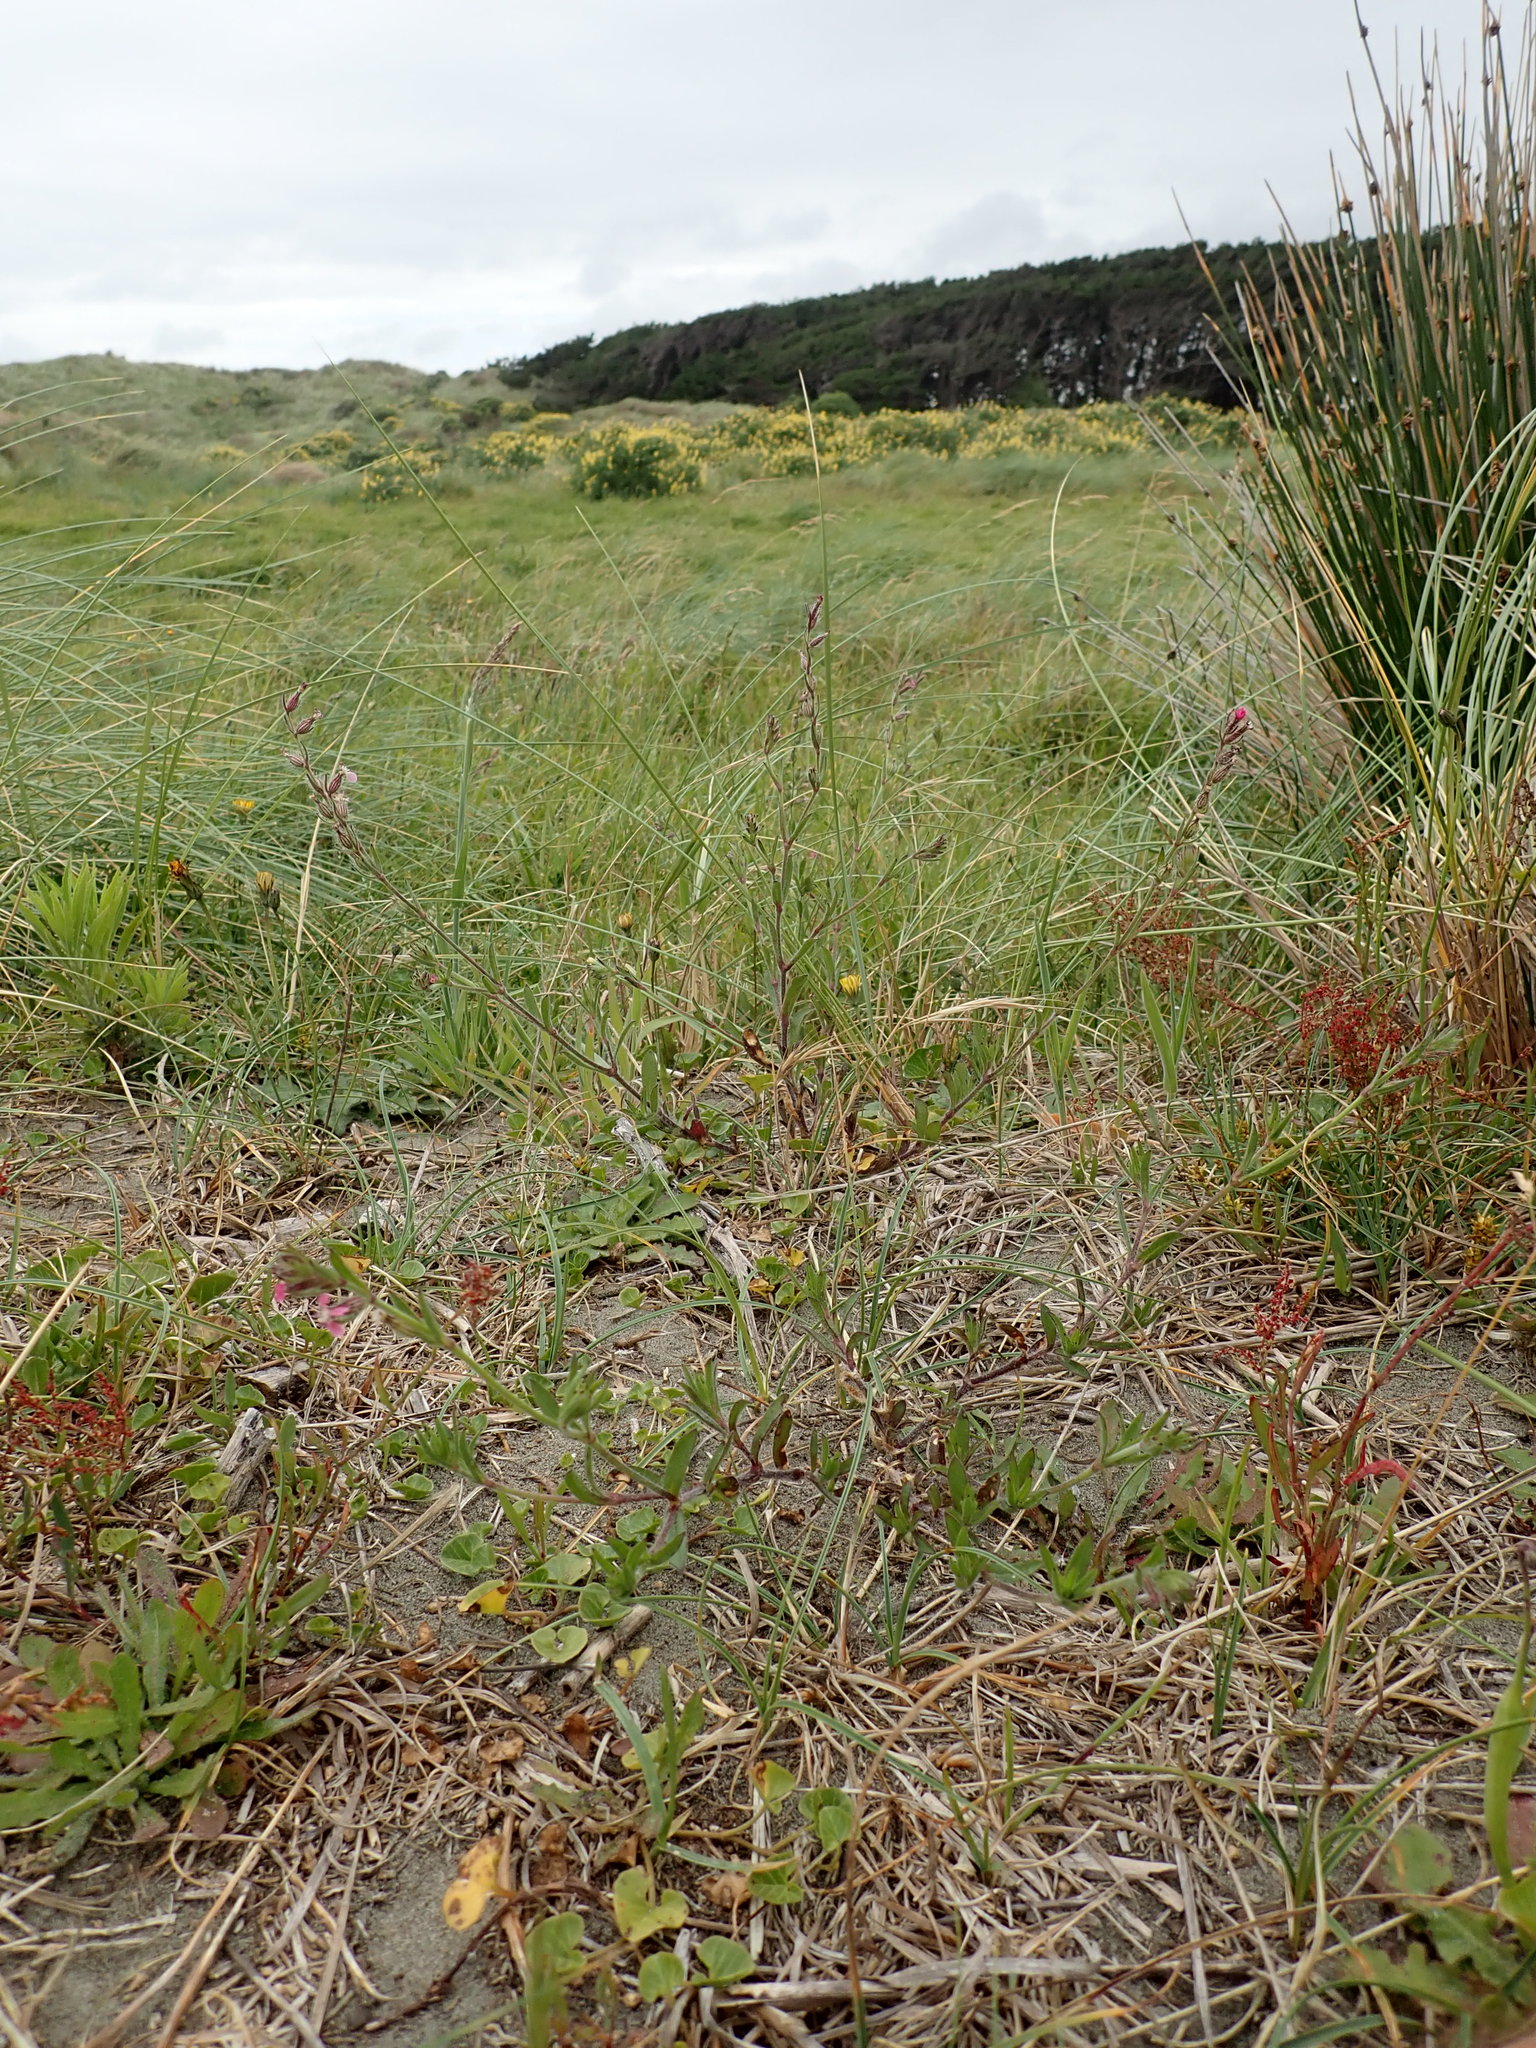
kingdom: Plantae
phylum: Tracheophyta
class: Magnoliopsida
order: Caryophyllales
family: Caryophyllaceae
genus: Silene
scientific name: Silene gallica
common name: Small-flowered catchfly
